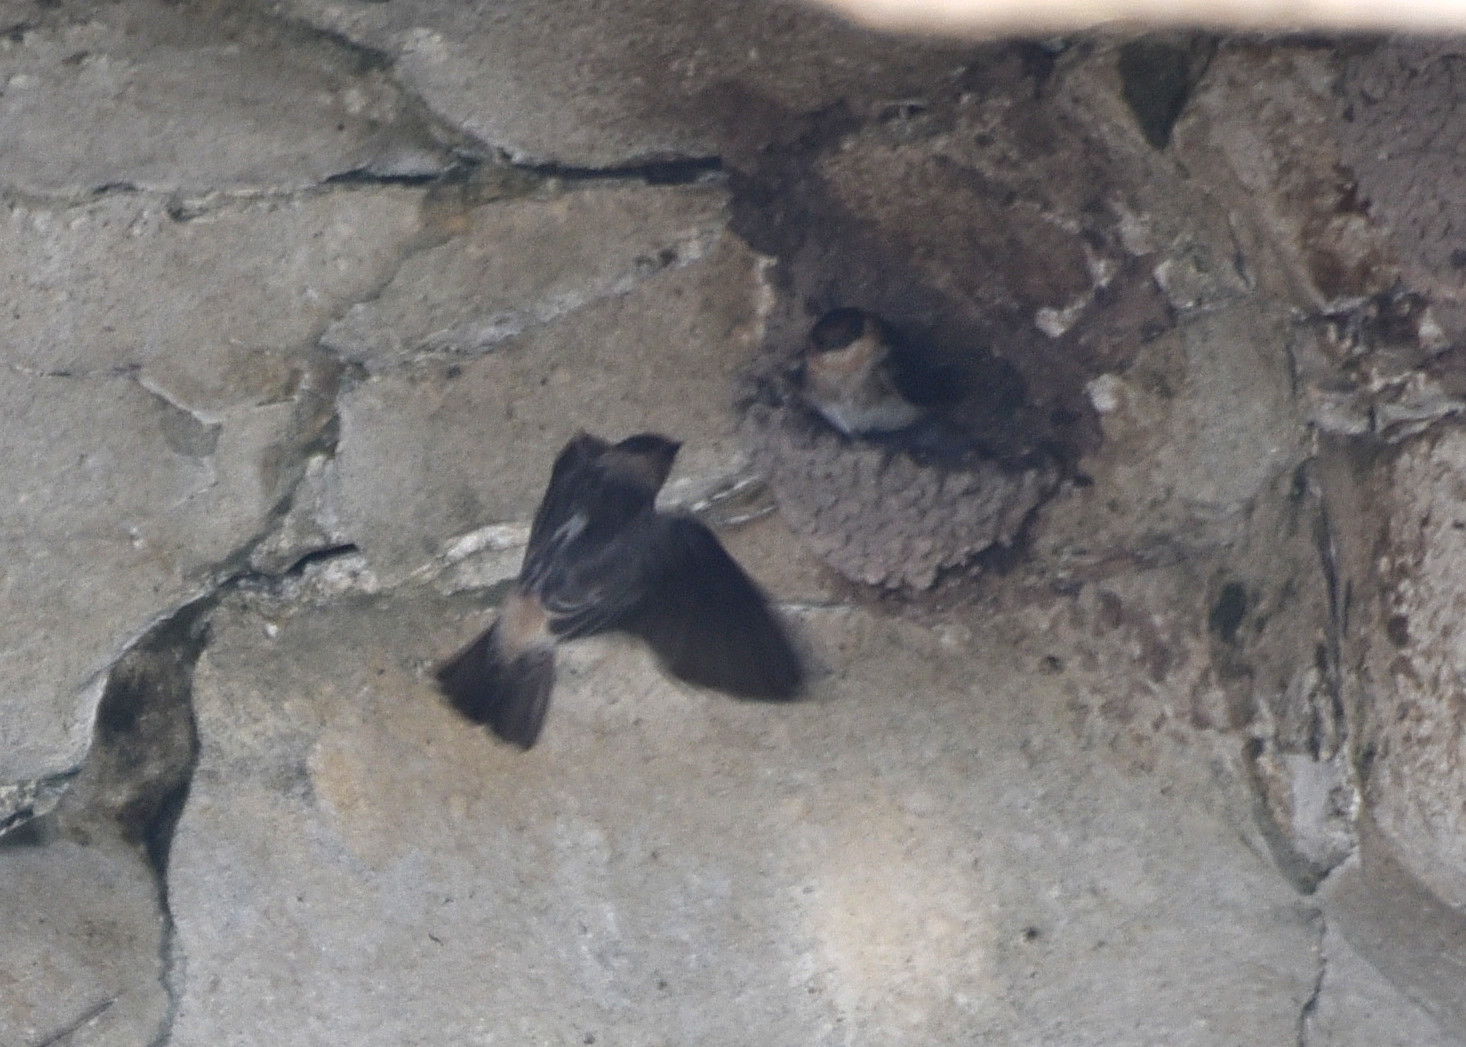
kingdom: Animalia
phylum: Chordata
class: Aves
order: Passeriformes
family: Hirundinidae
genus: Petrochelidon
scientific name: Petrochelidon fulva
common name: Cave swallow
